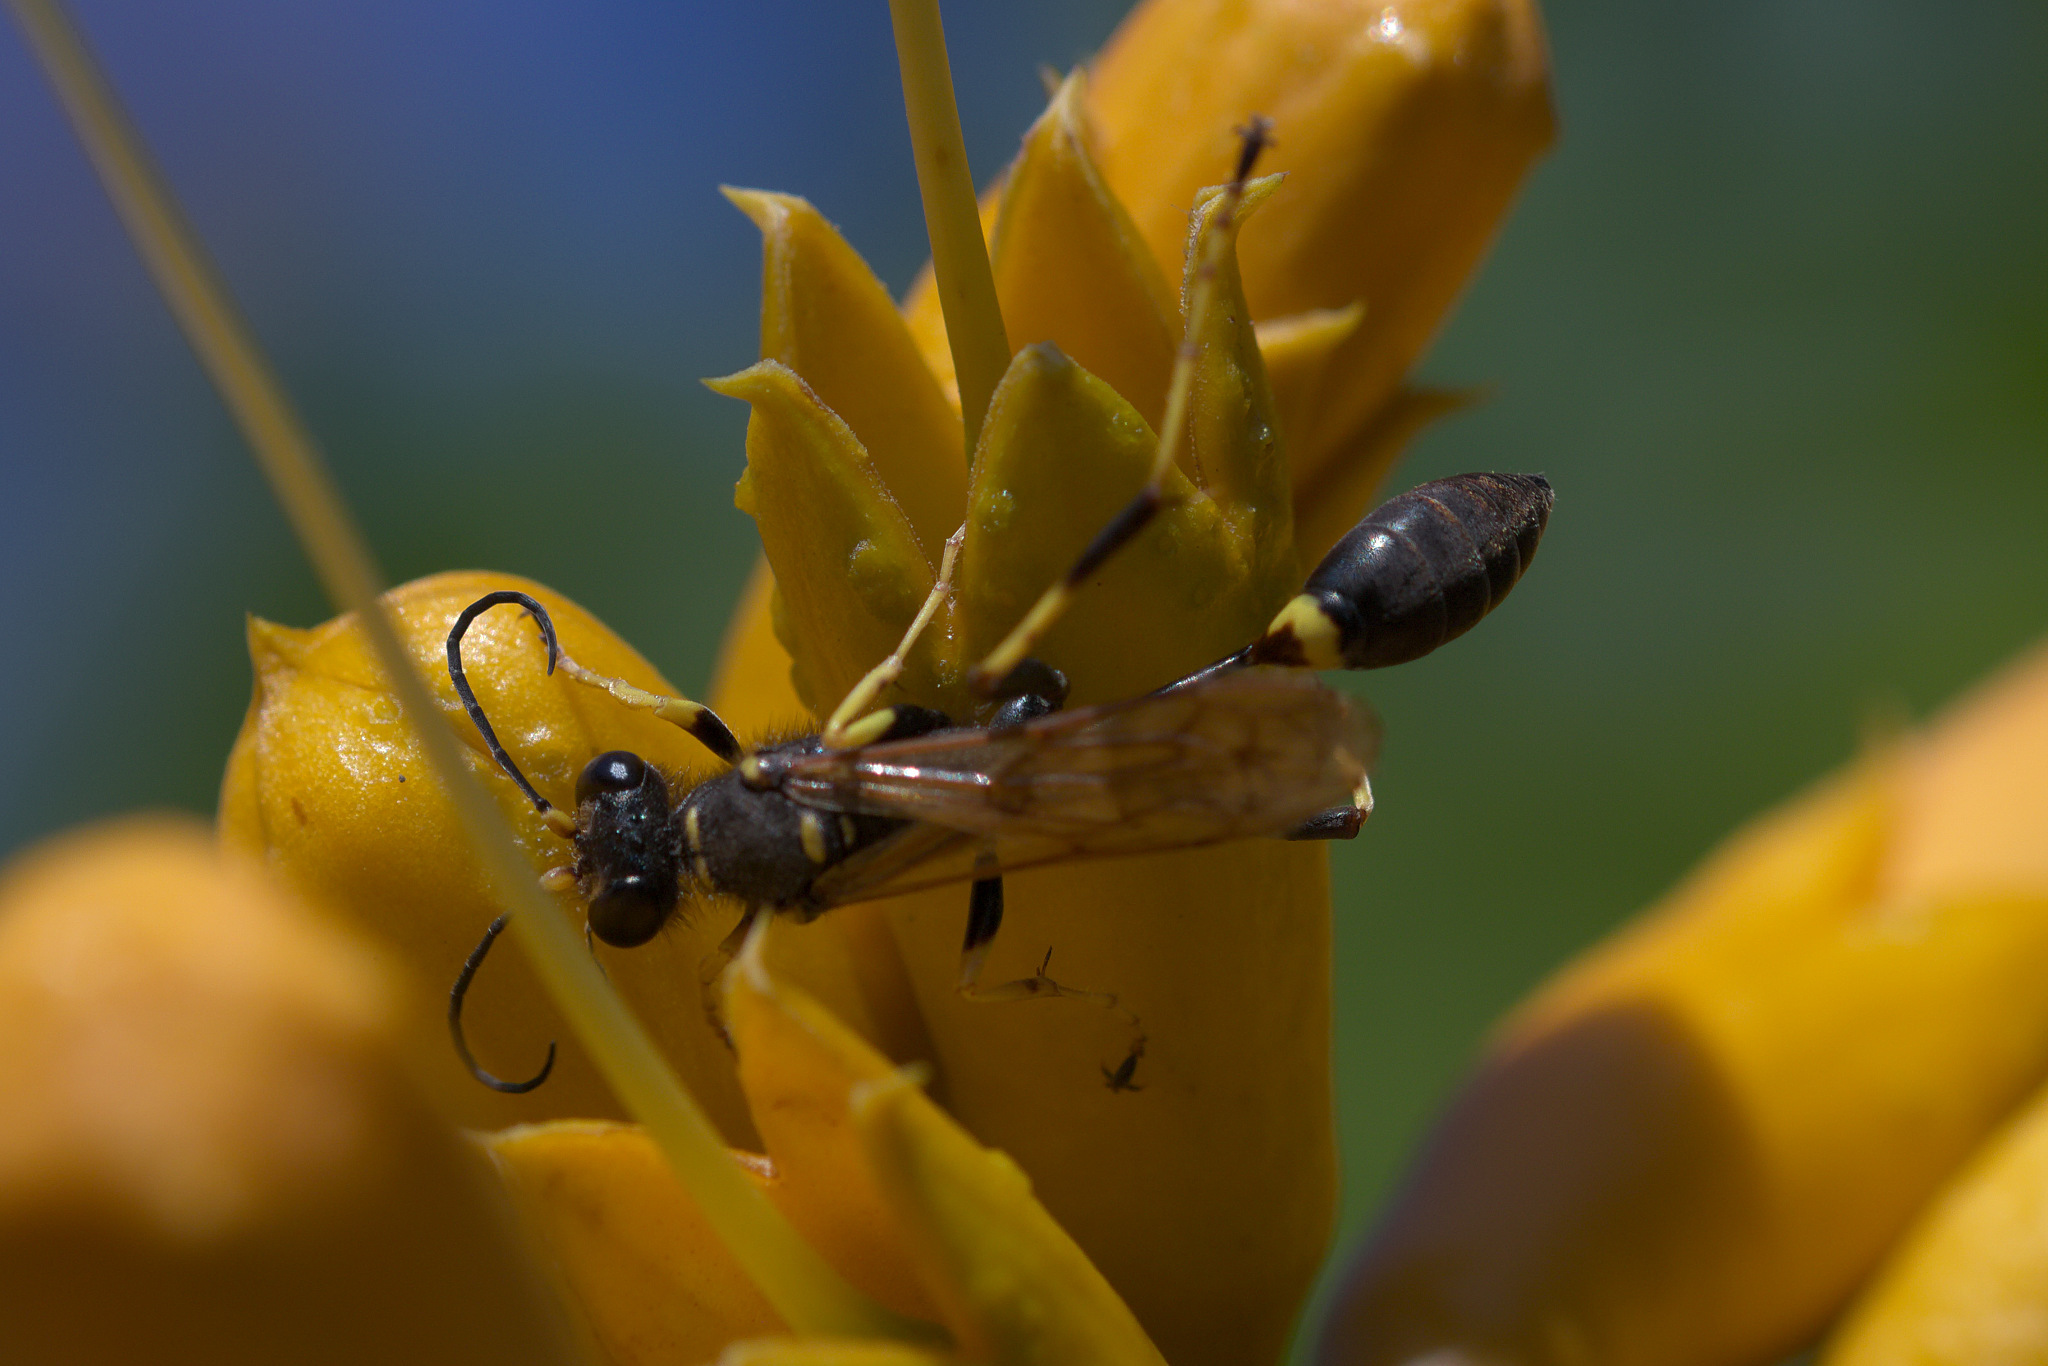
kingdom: Animalia
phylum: Arthropoda
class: Insecta
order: Hymenoptera
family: Sphecidae
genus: Sceliphron
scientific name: Sceliphron caementarium
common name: Mud dauber
